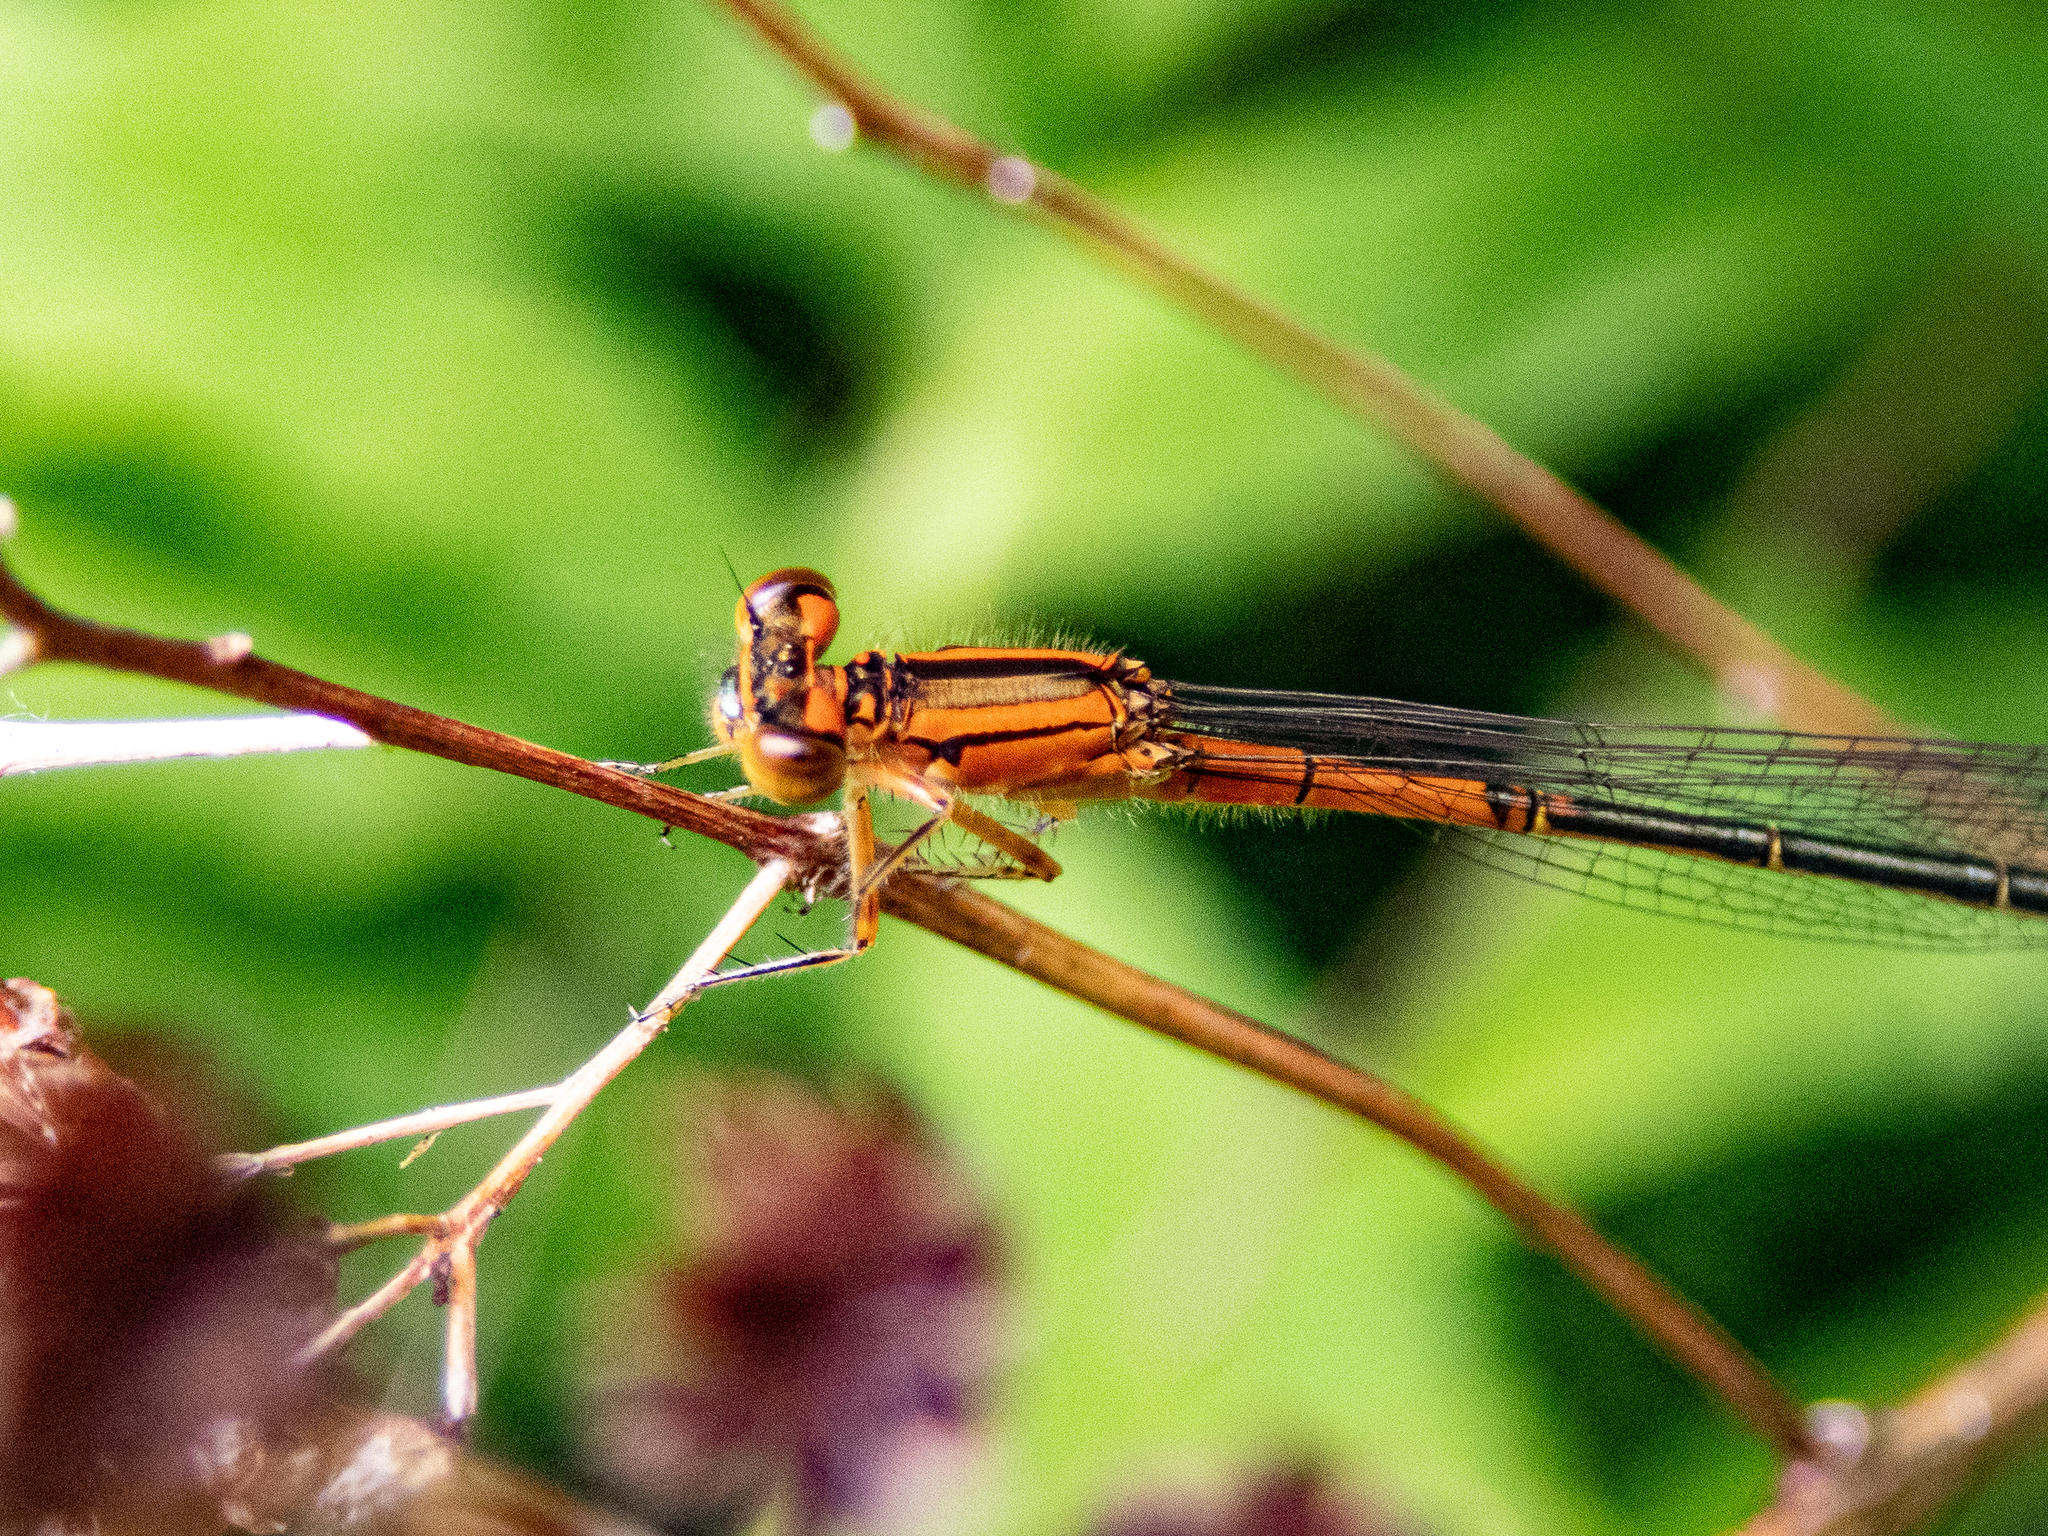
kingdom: Animalia
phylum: Arthropoda
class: Insecta
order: Odonata
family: Coenagrionidae
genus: Ischnura
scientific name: Ischnura verticalis
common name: Eastern forktail
